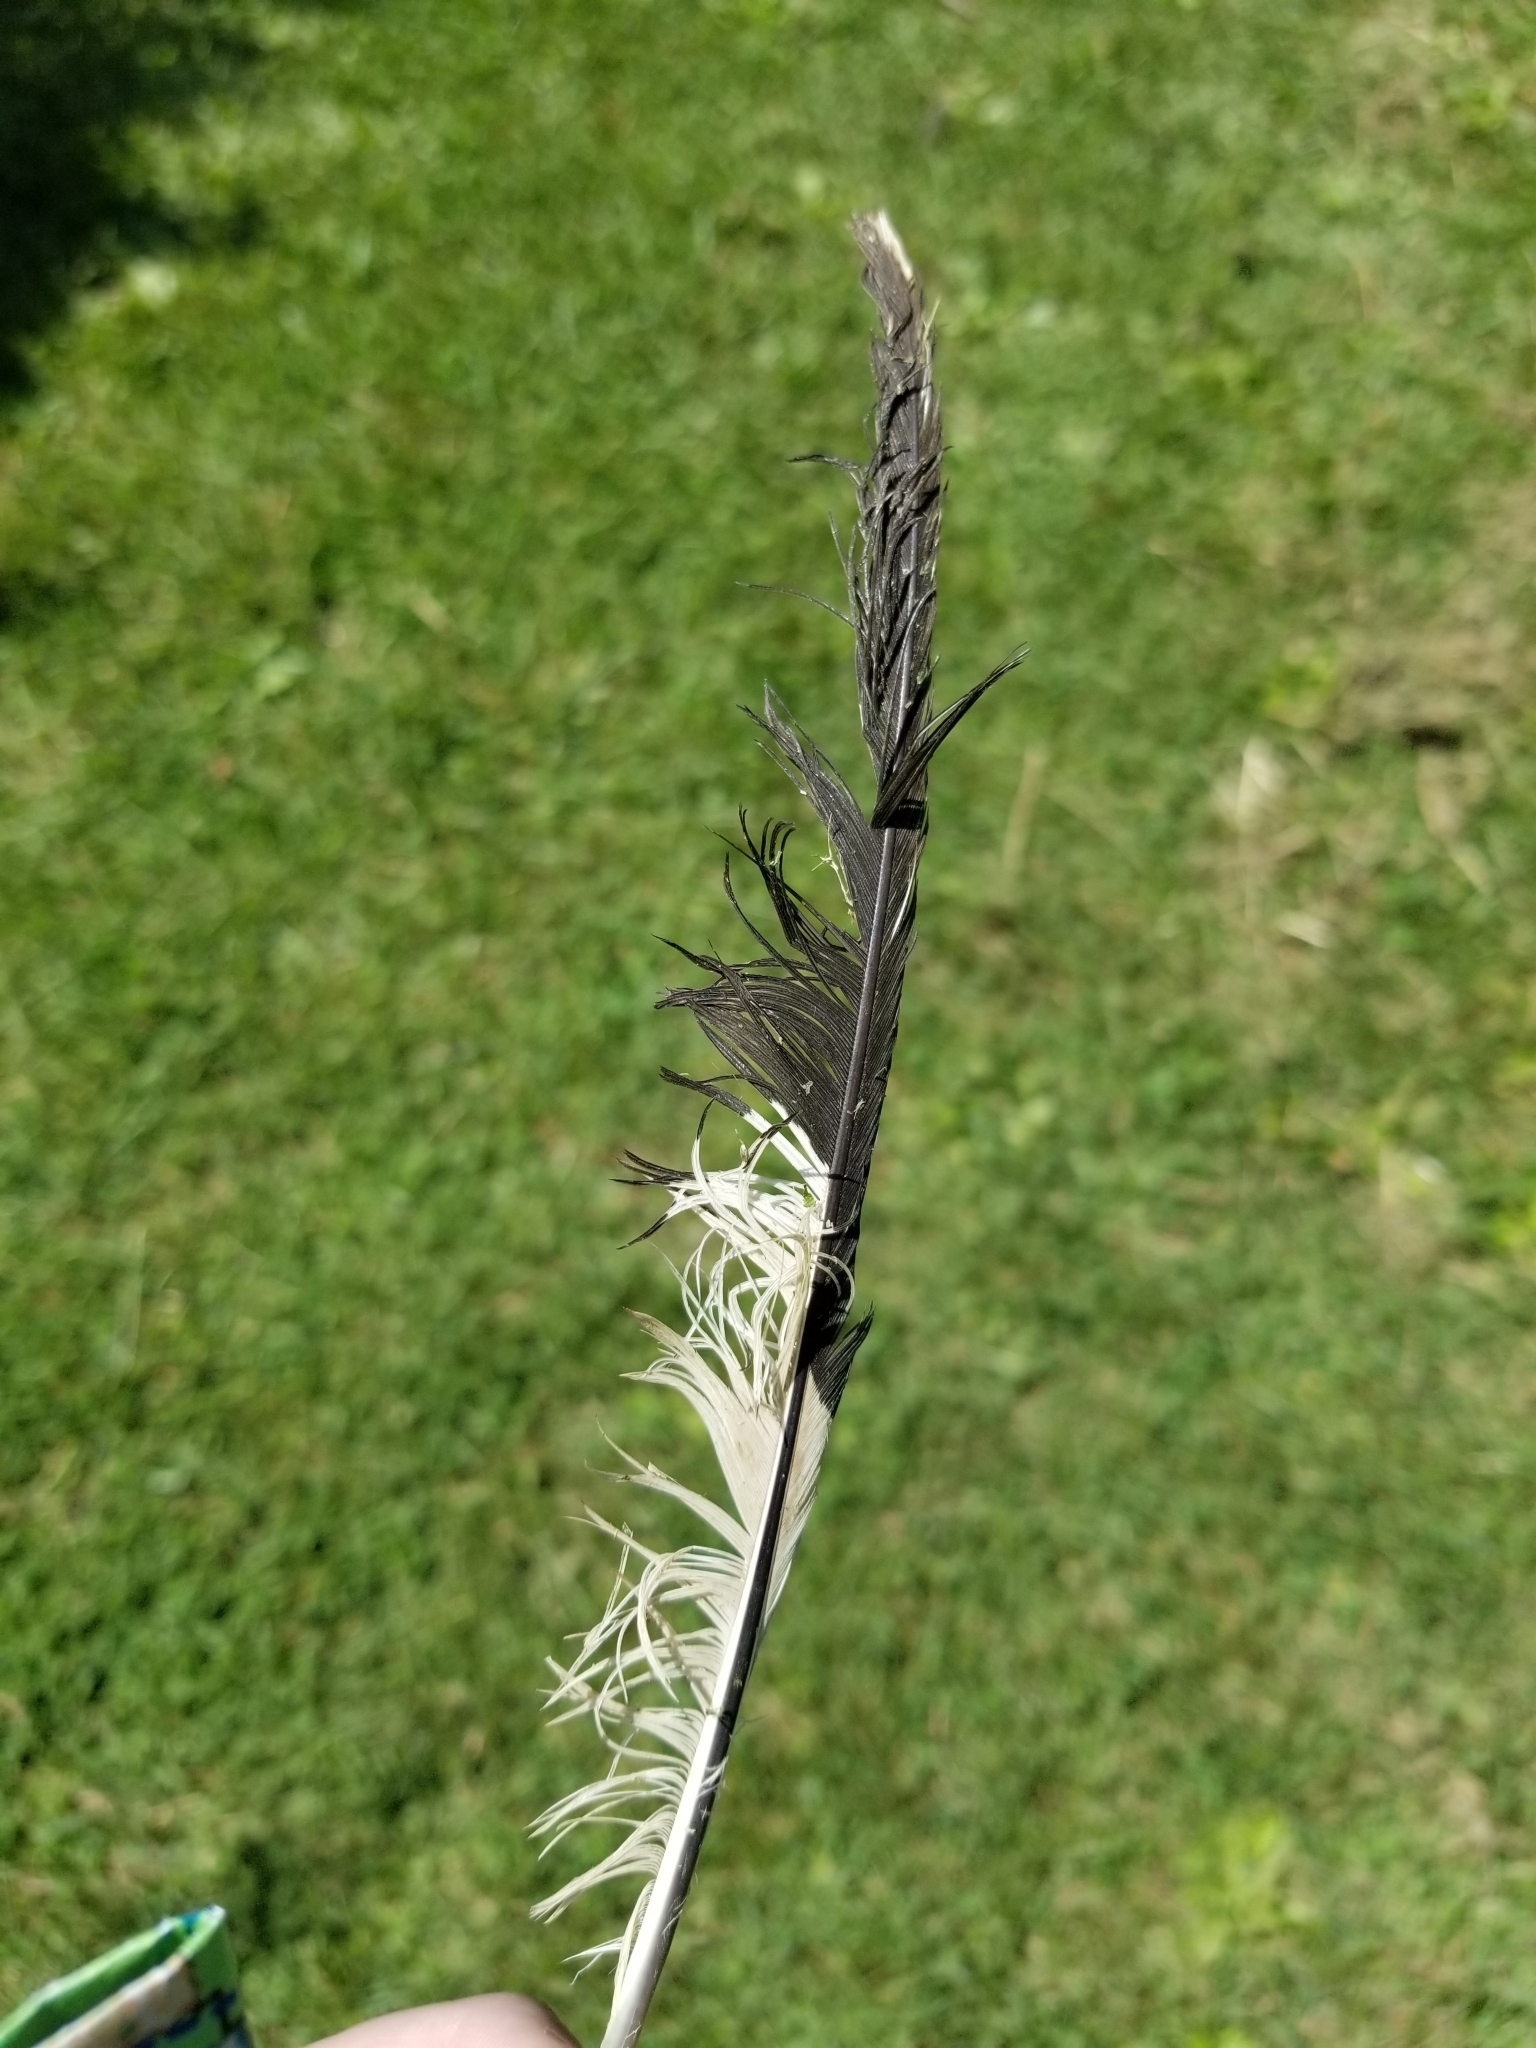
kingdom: Animalia
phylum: Chordata
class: Aves
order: Charadriiformes
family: Laridae
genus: Larus
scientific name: Larus delawarensis
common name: Ring-billed gull
